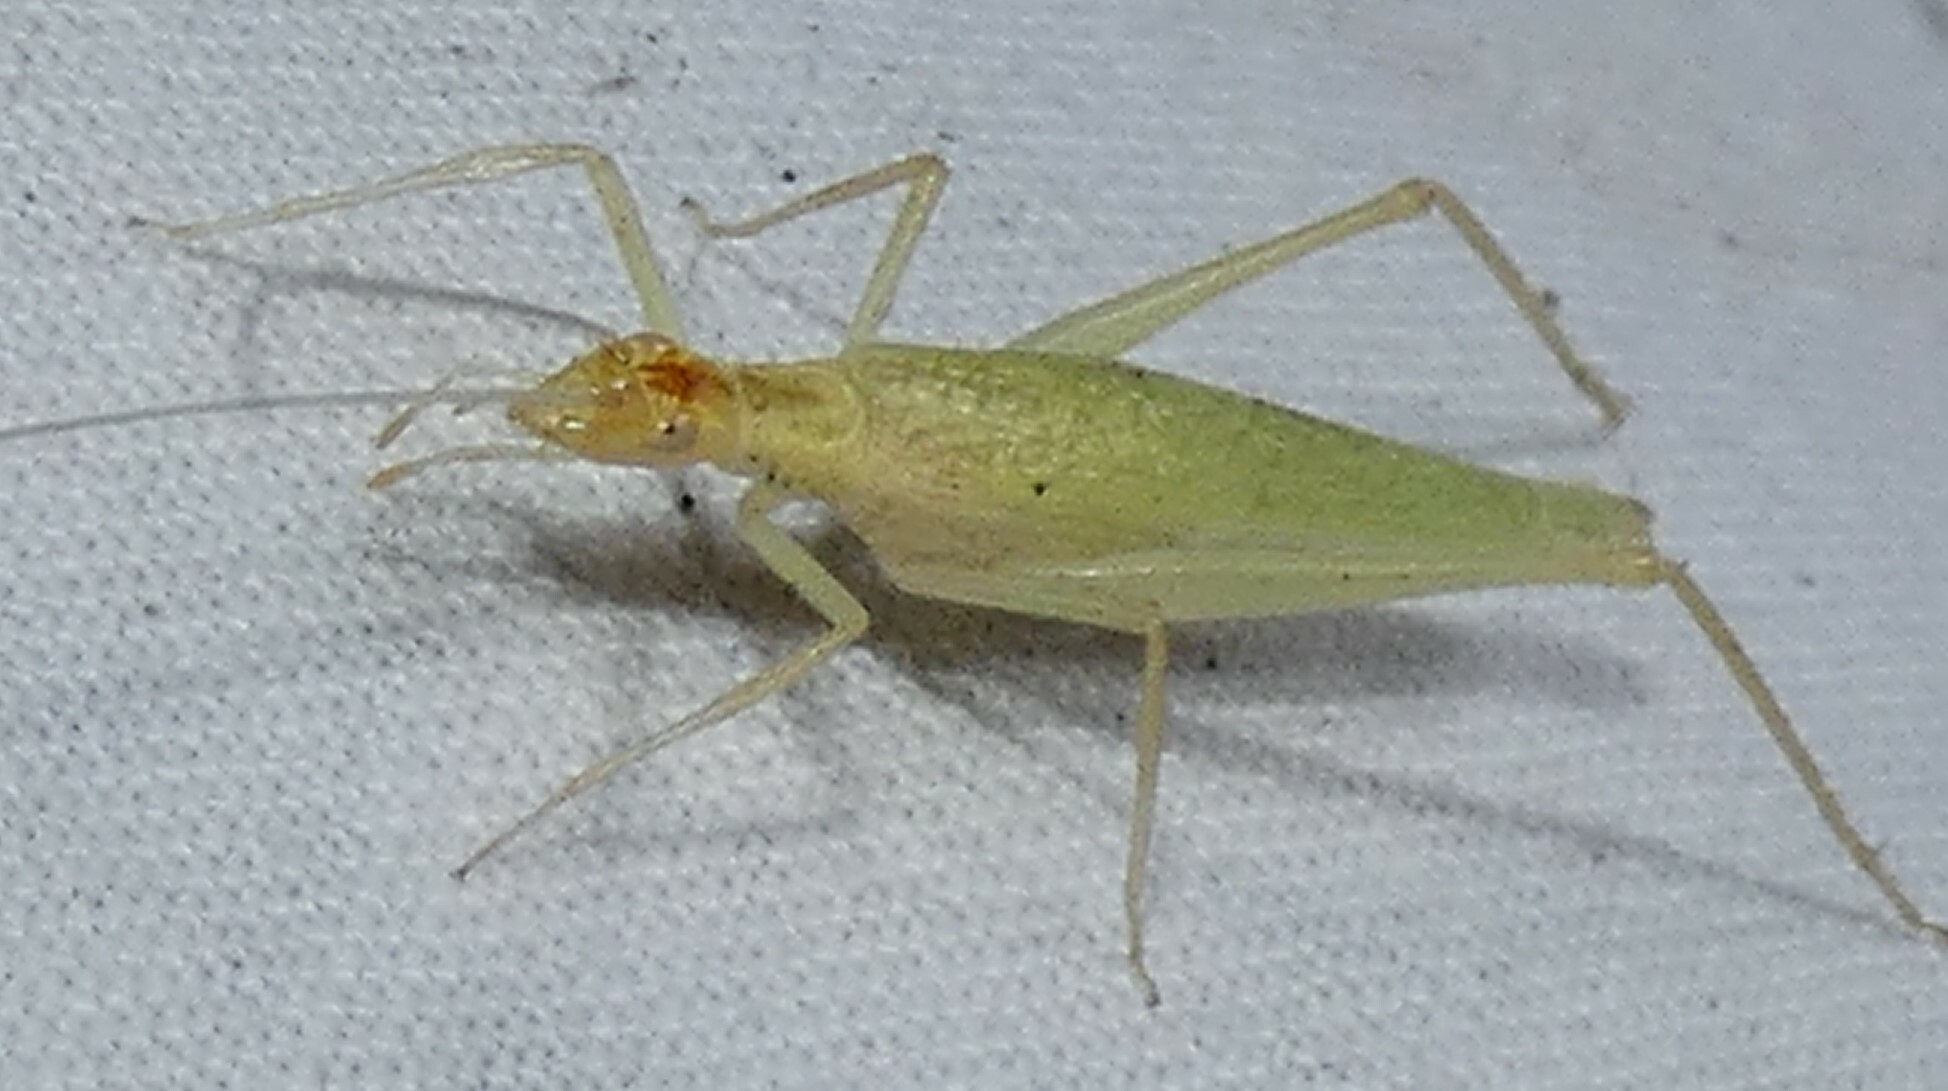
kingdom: Animalia
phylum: Arthropoda
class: Insecta
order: Orthoptera
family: Gryllidae
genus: Oecanthus
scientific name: Oecanthus niveus
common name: Narrow-winged tree cricket
